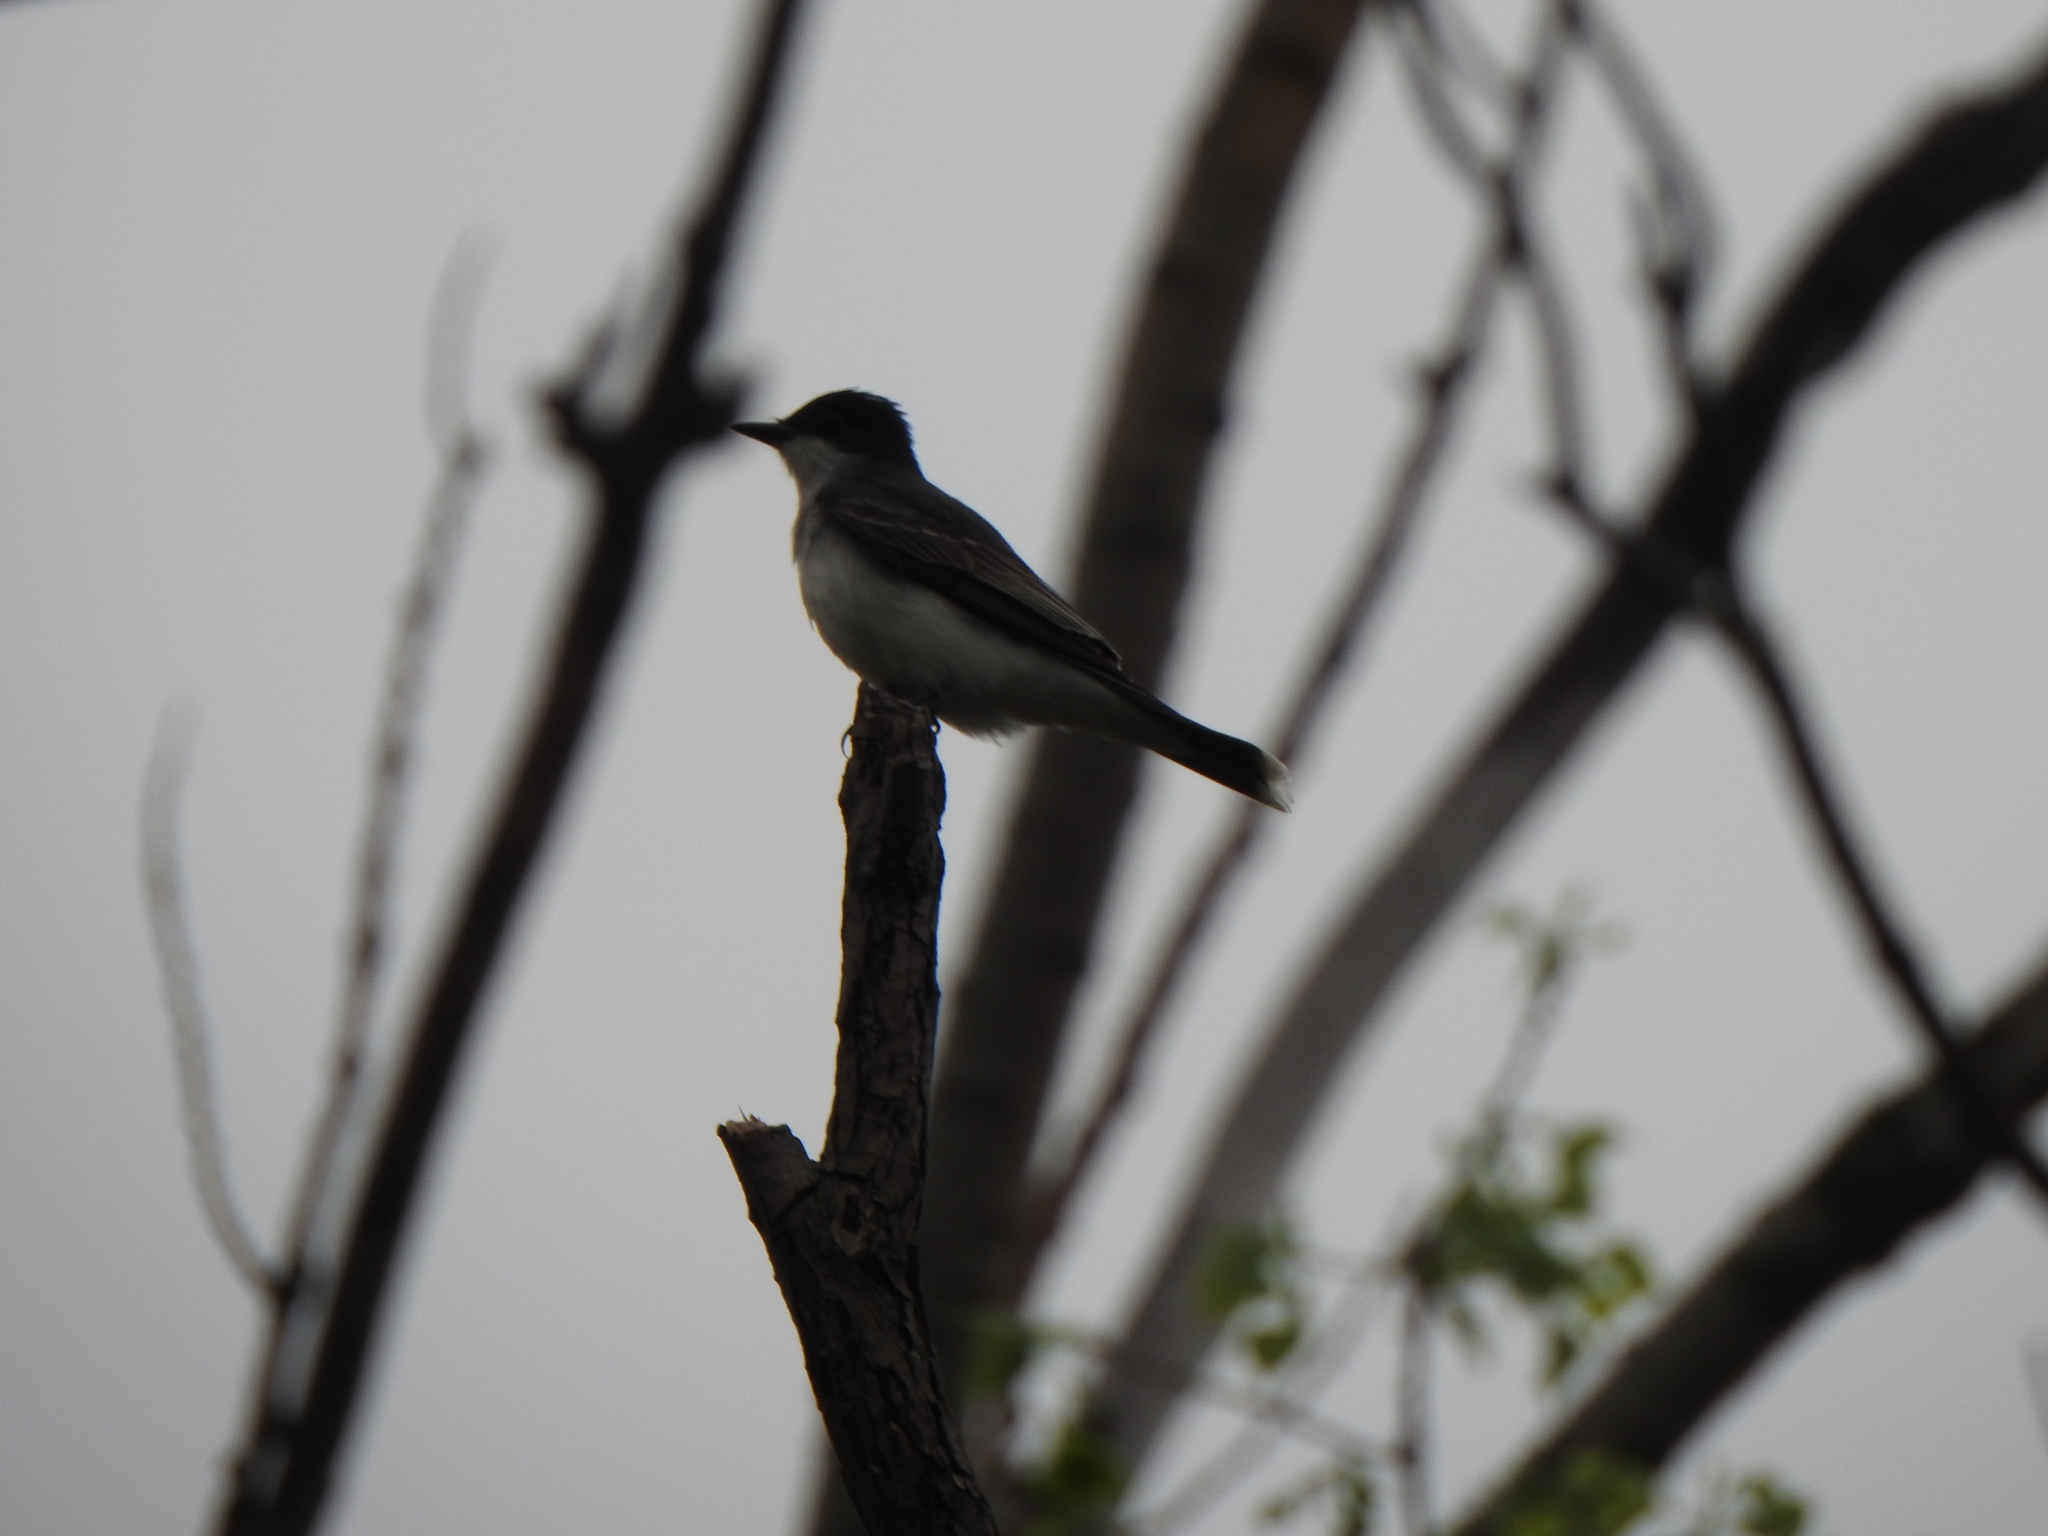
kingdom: Animalia
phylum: Chordata
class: Aves
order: Passeriformes
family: Tyrannidae
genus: Tyrannus
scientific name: Tyrannus tyrannus
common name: Eastern kingbird
